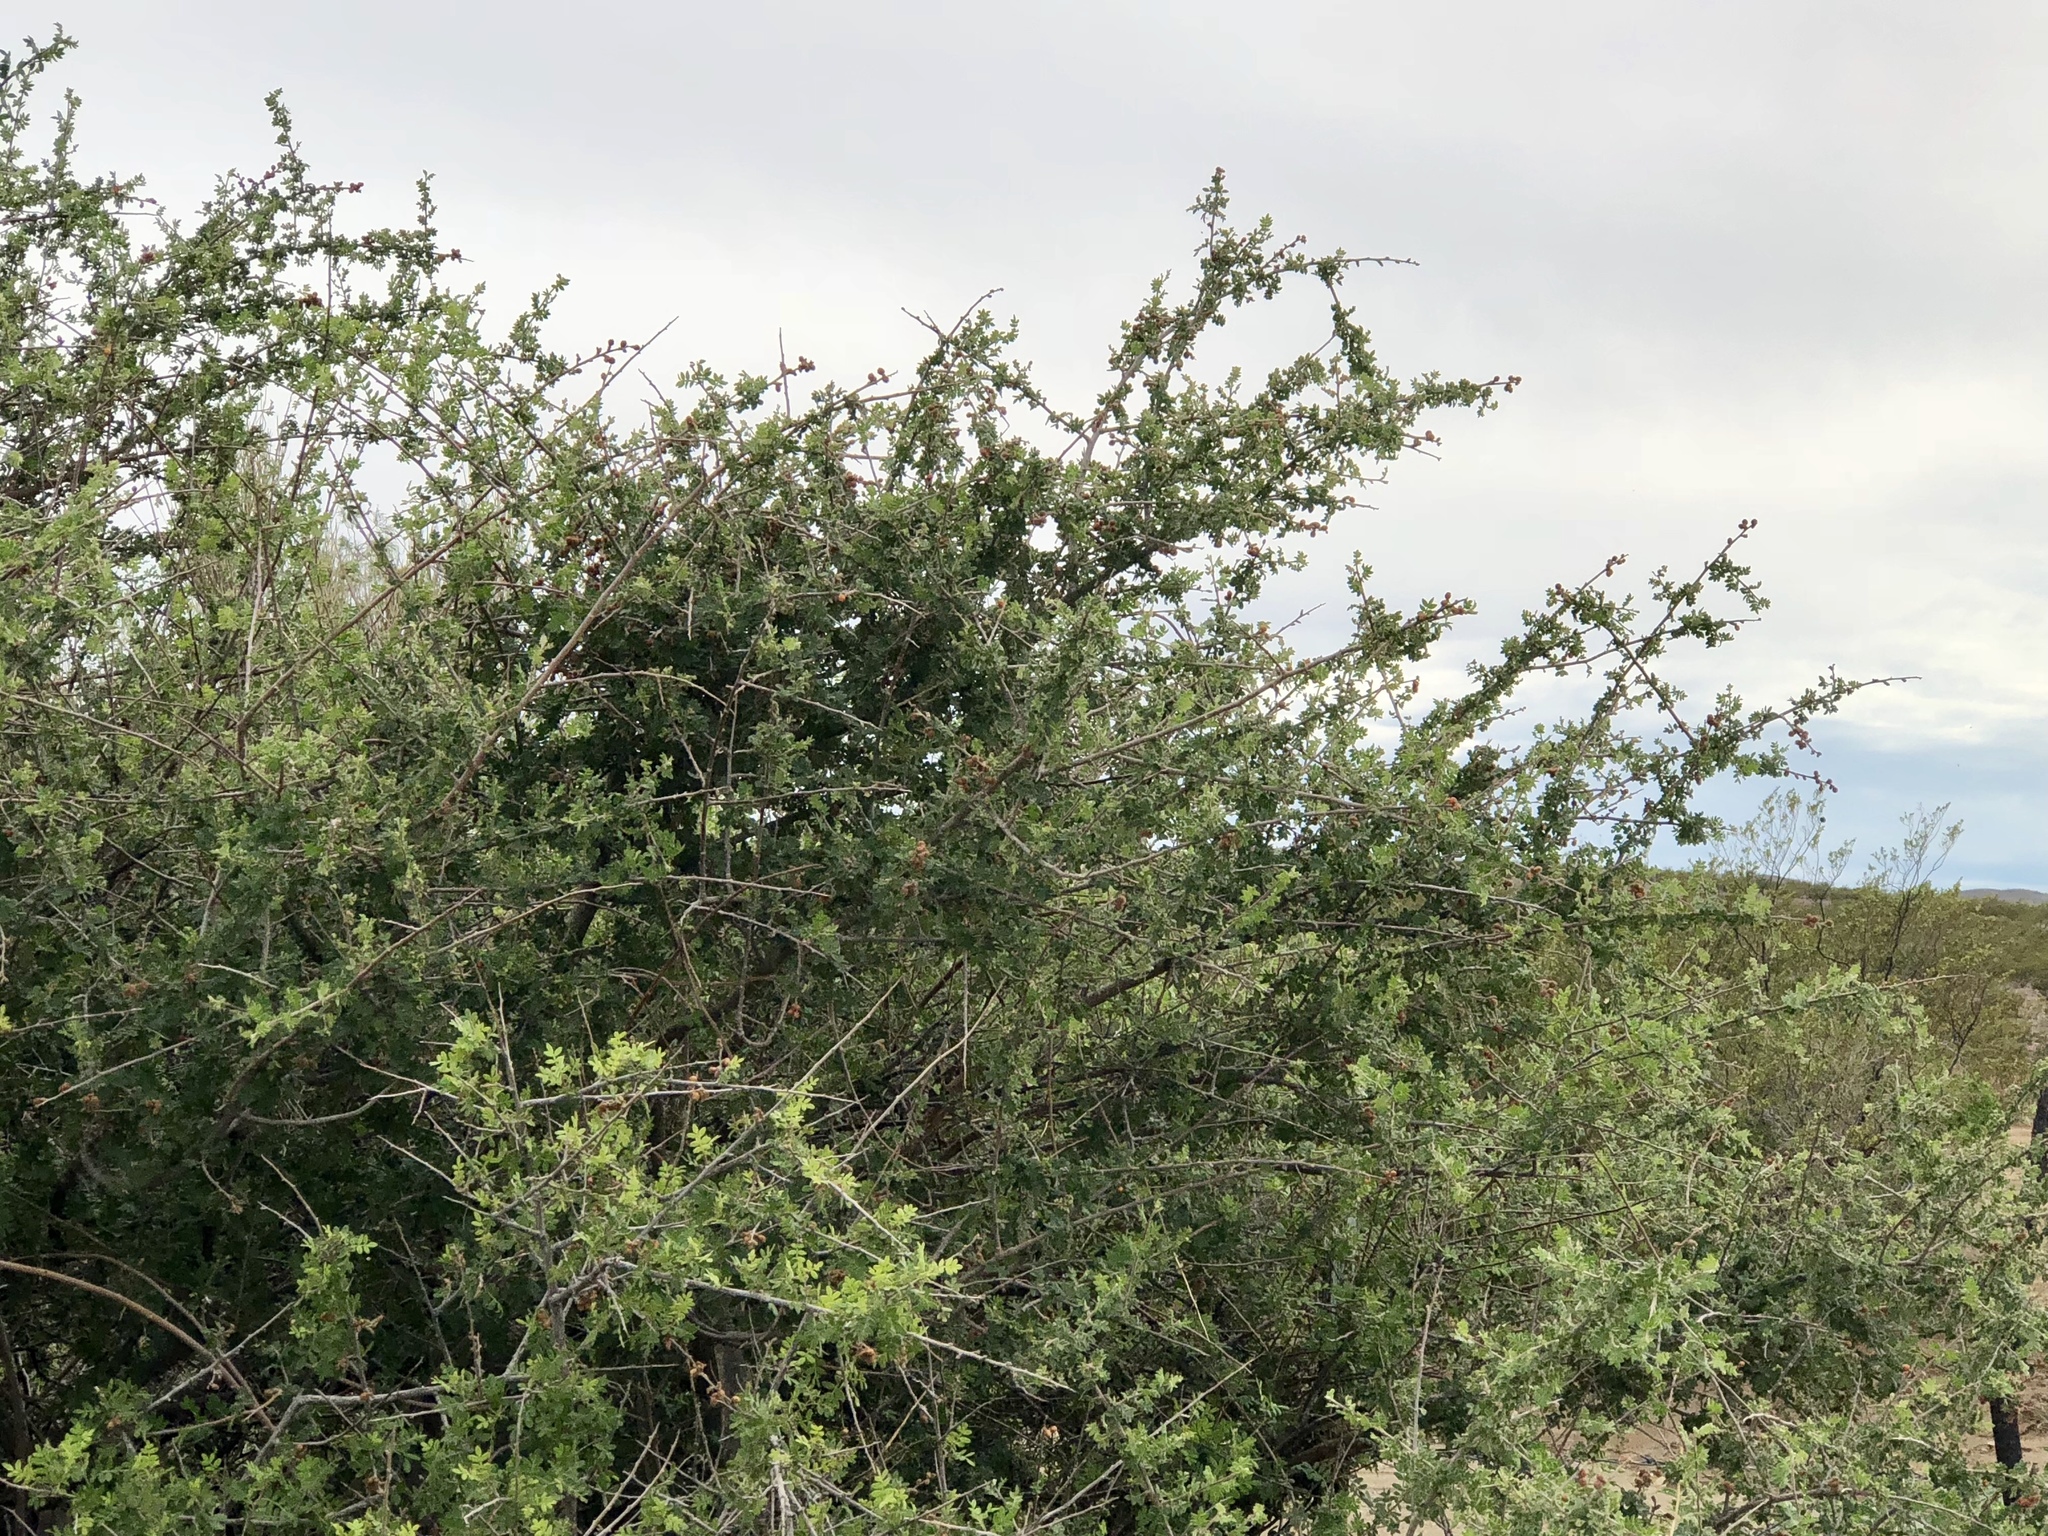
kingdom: Plantae
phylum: Tracheophyta
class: Magnoliopsida
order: Sapindales
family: Anacardiaceae
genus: Rhus
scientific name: Rhus microphylla
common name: Desert sumac
